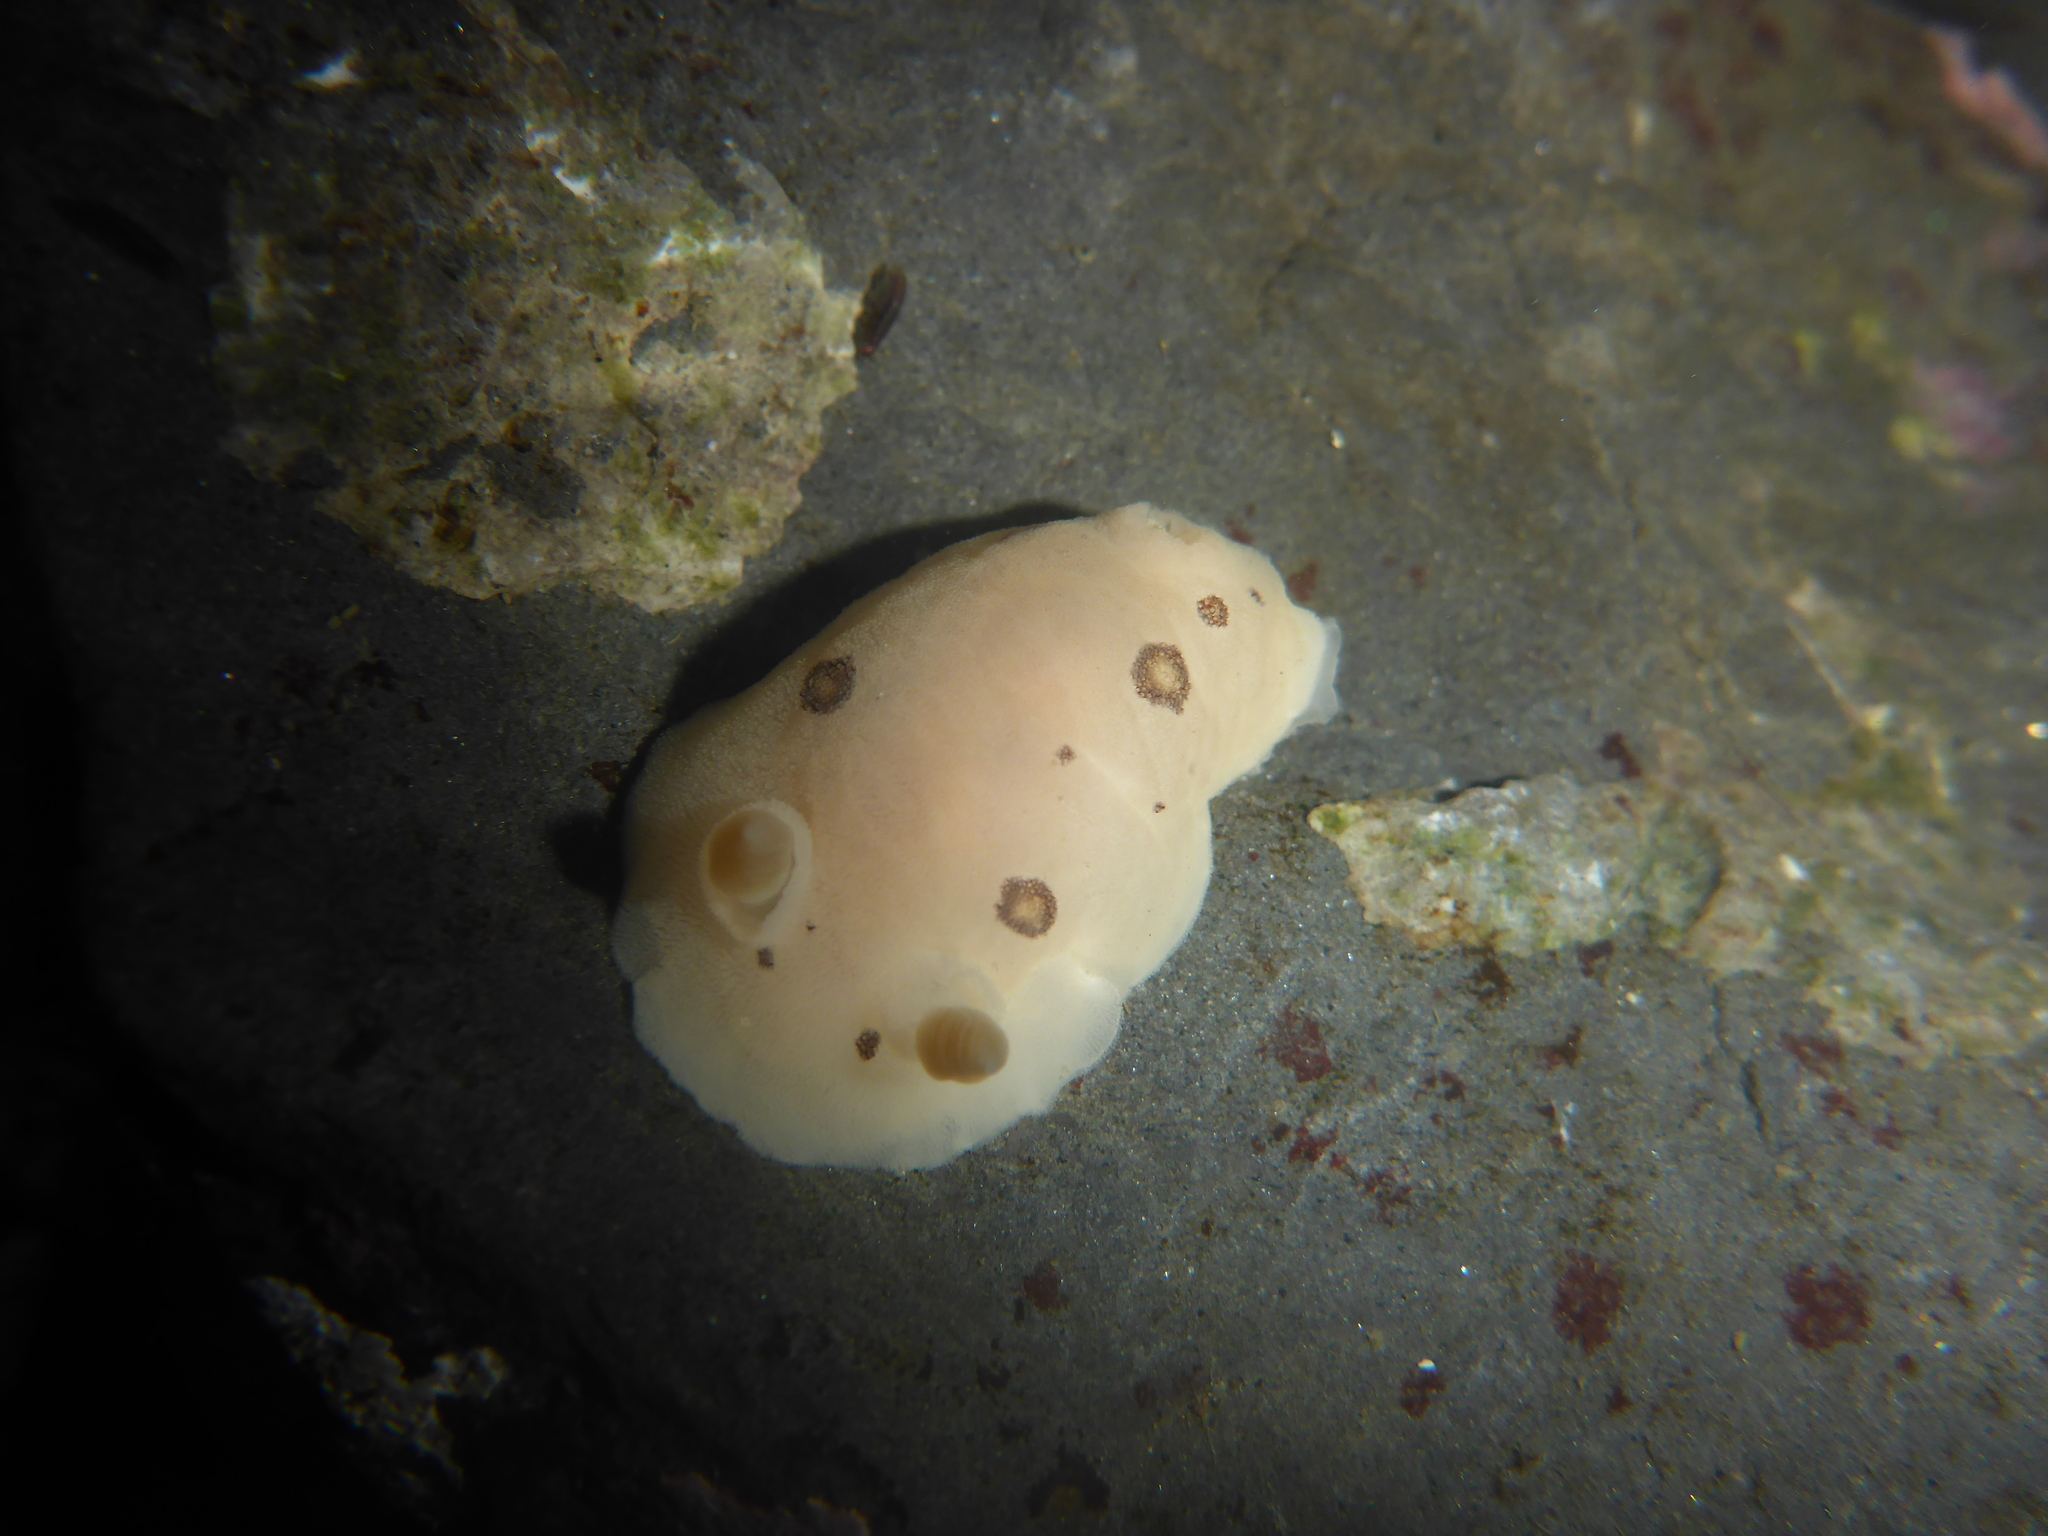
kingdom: Animalia
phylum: Mollusca
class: Gastropoda
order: Nudibranchia
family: Discodorididae
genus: Diaulula
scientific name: Diaulula sandiegensis
